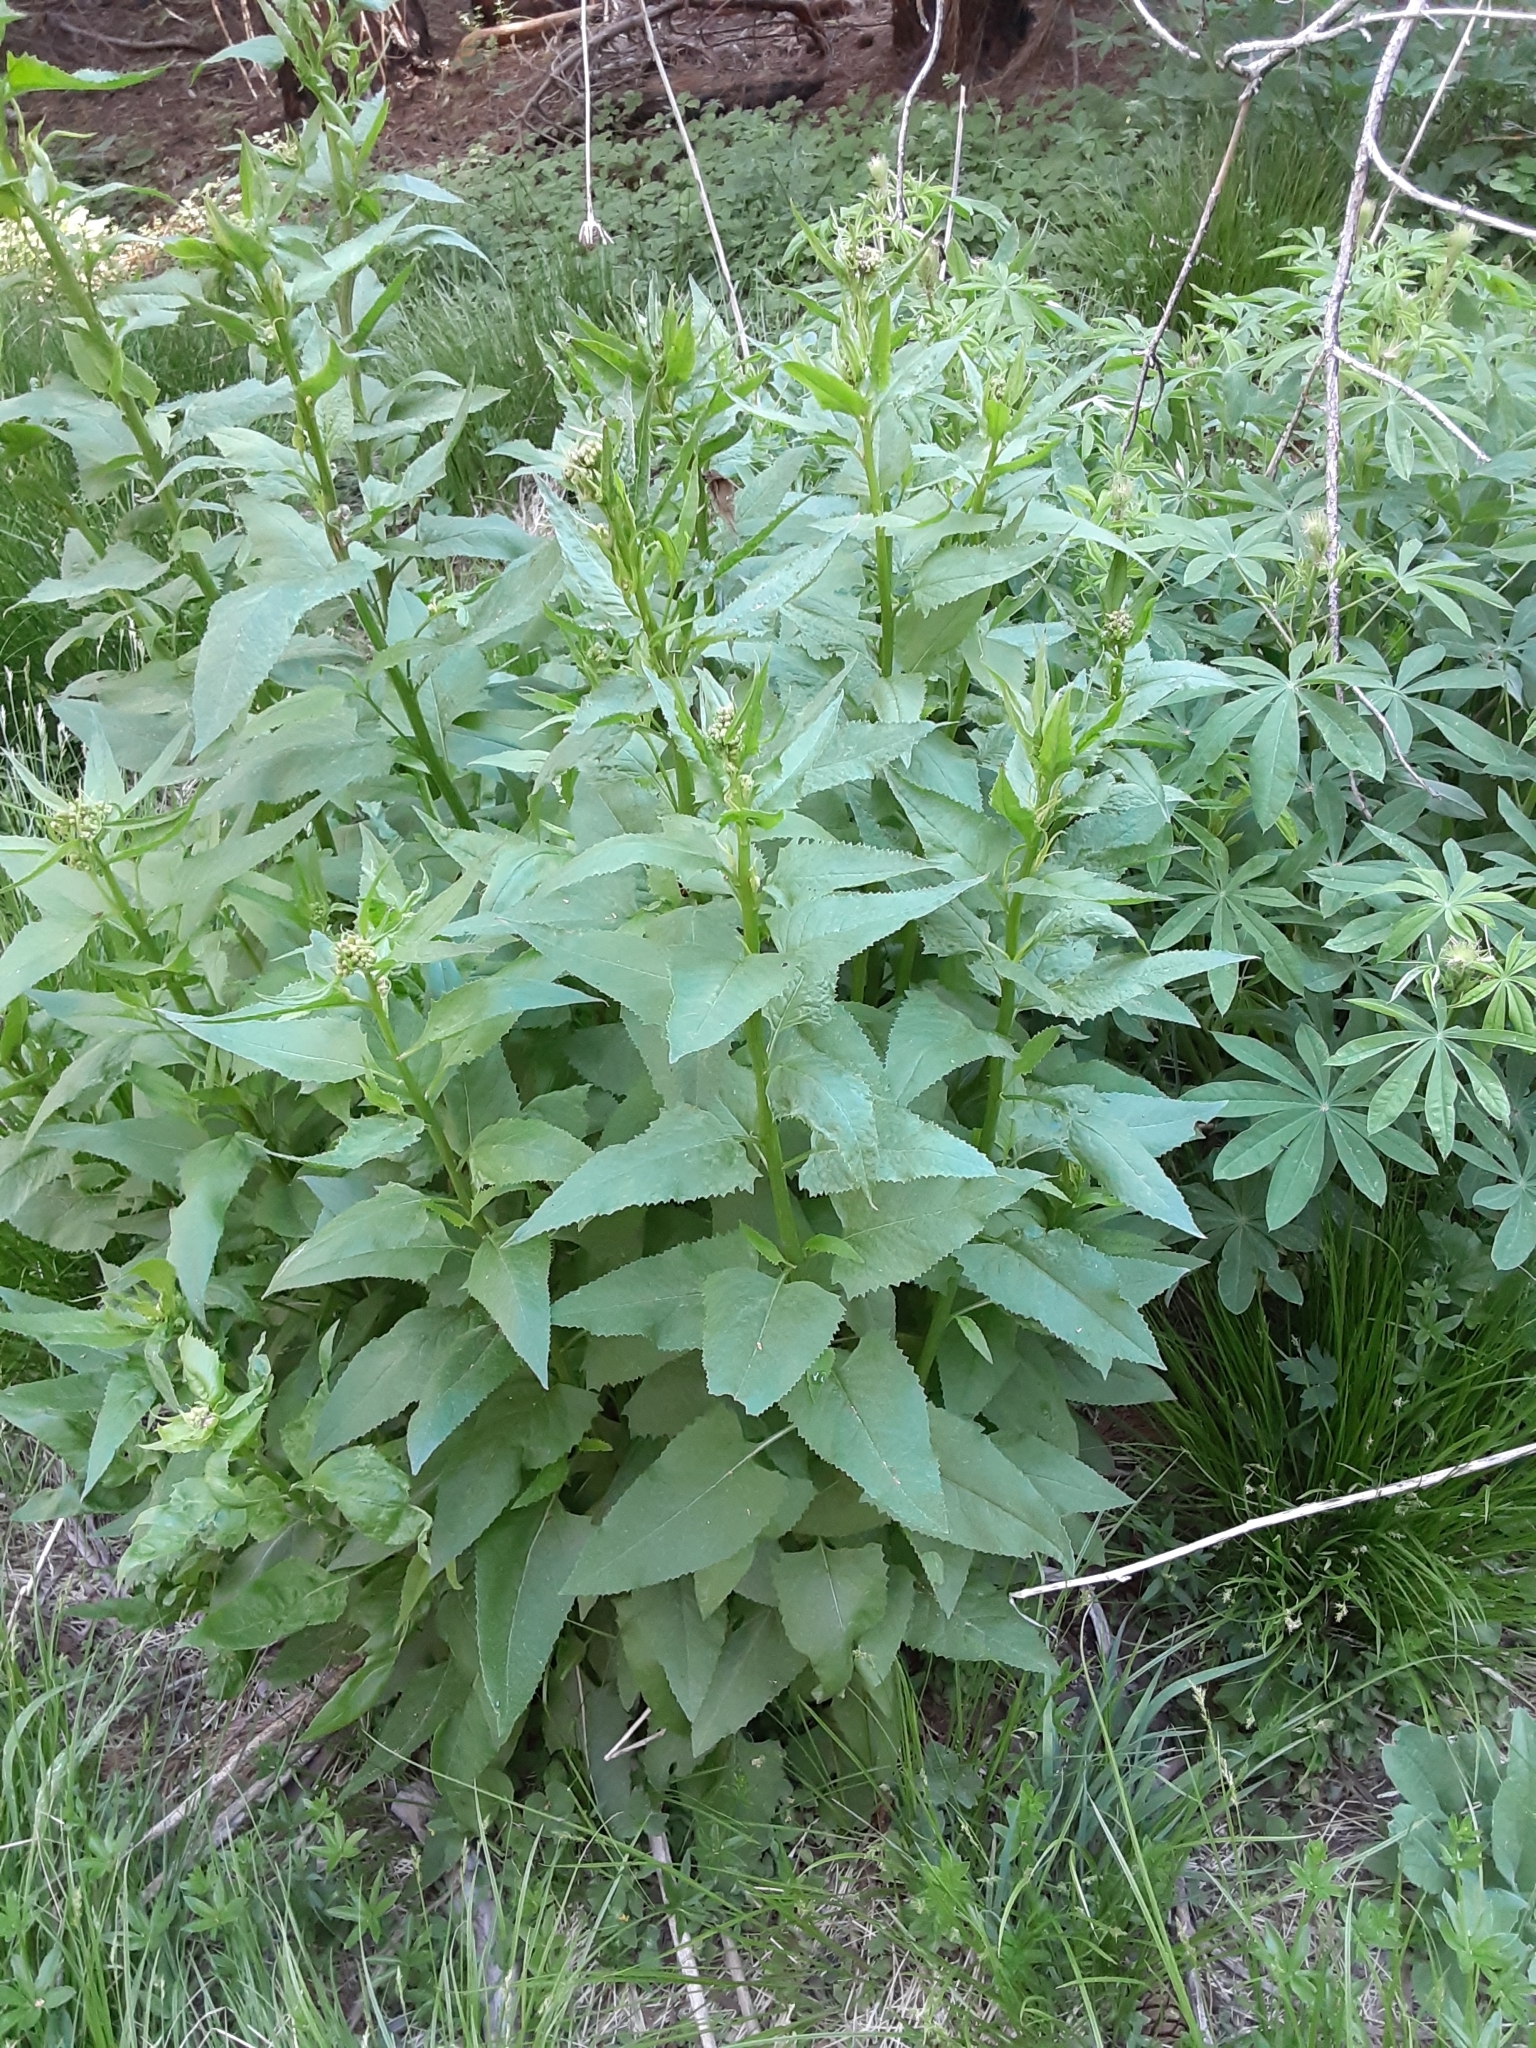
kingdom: Plantae
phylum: Tracheophyta
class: Magnoliopsida
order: Asterales
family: Asteraceae
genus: Senecio
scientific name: Senecio triangularis
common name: Arrowleaf butterweed
